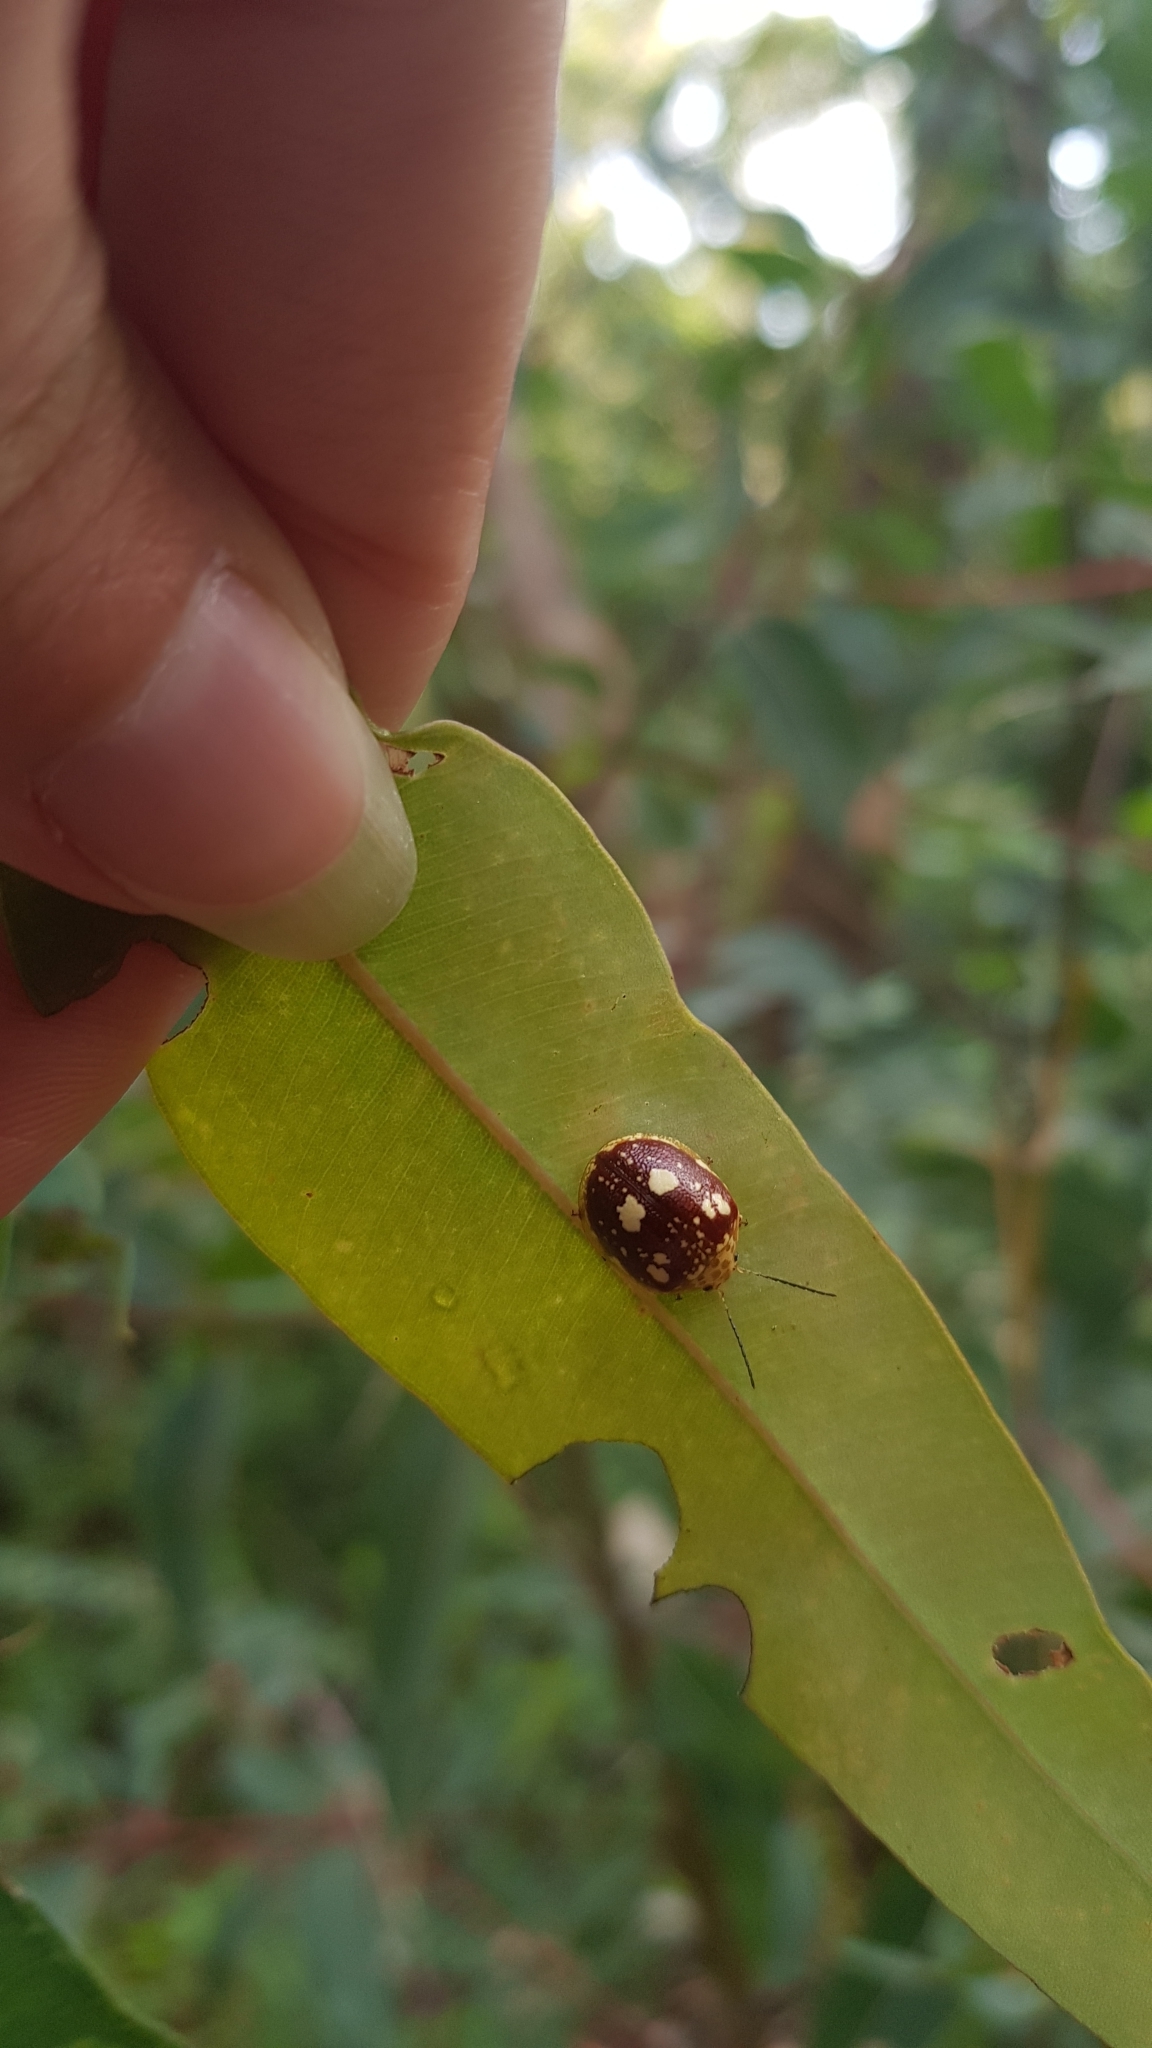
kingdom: Animalia
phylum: Arthropoda
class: Insecta
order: Coleoptera
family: Chrysomelidae
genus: Paropsis
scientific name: Paropsis maculata
